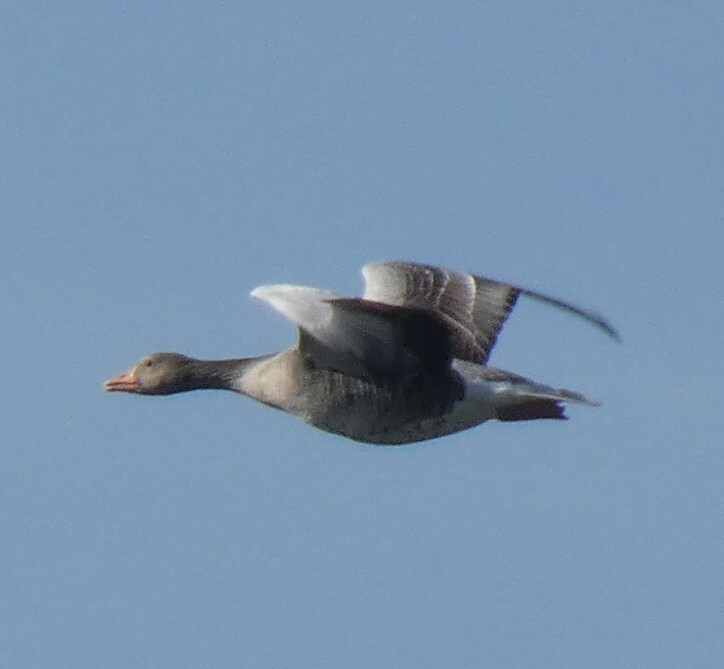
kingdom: Animalia
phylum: Chordata
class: Aves
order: Anseriformes
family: Anatidae
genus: Anser
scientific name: Anser anser
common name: Greylag goose
